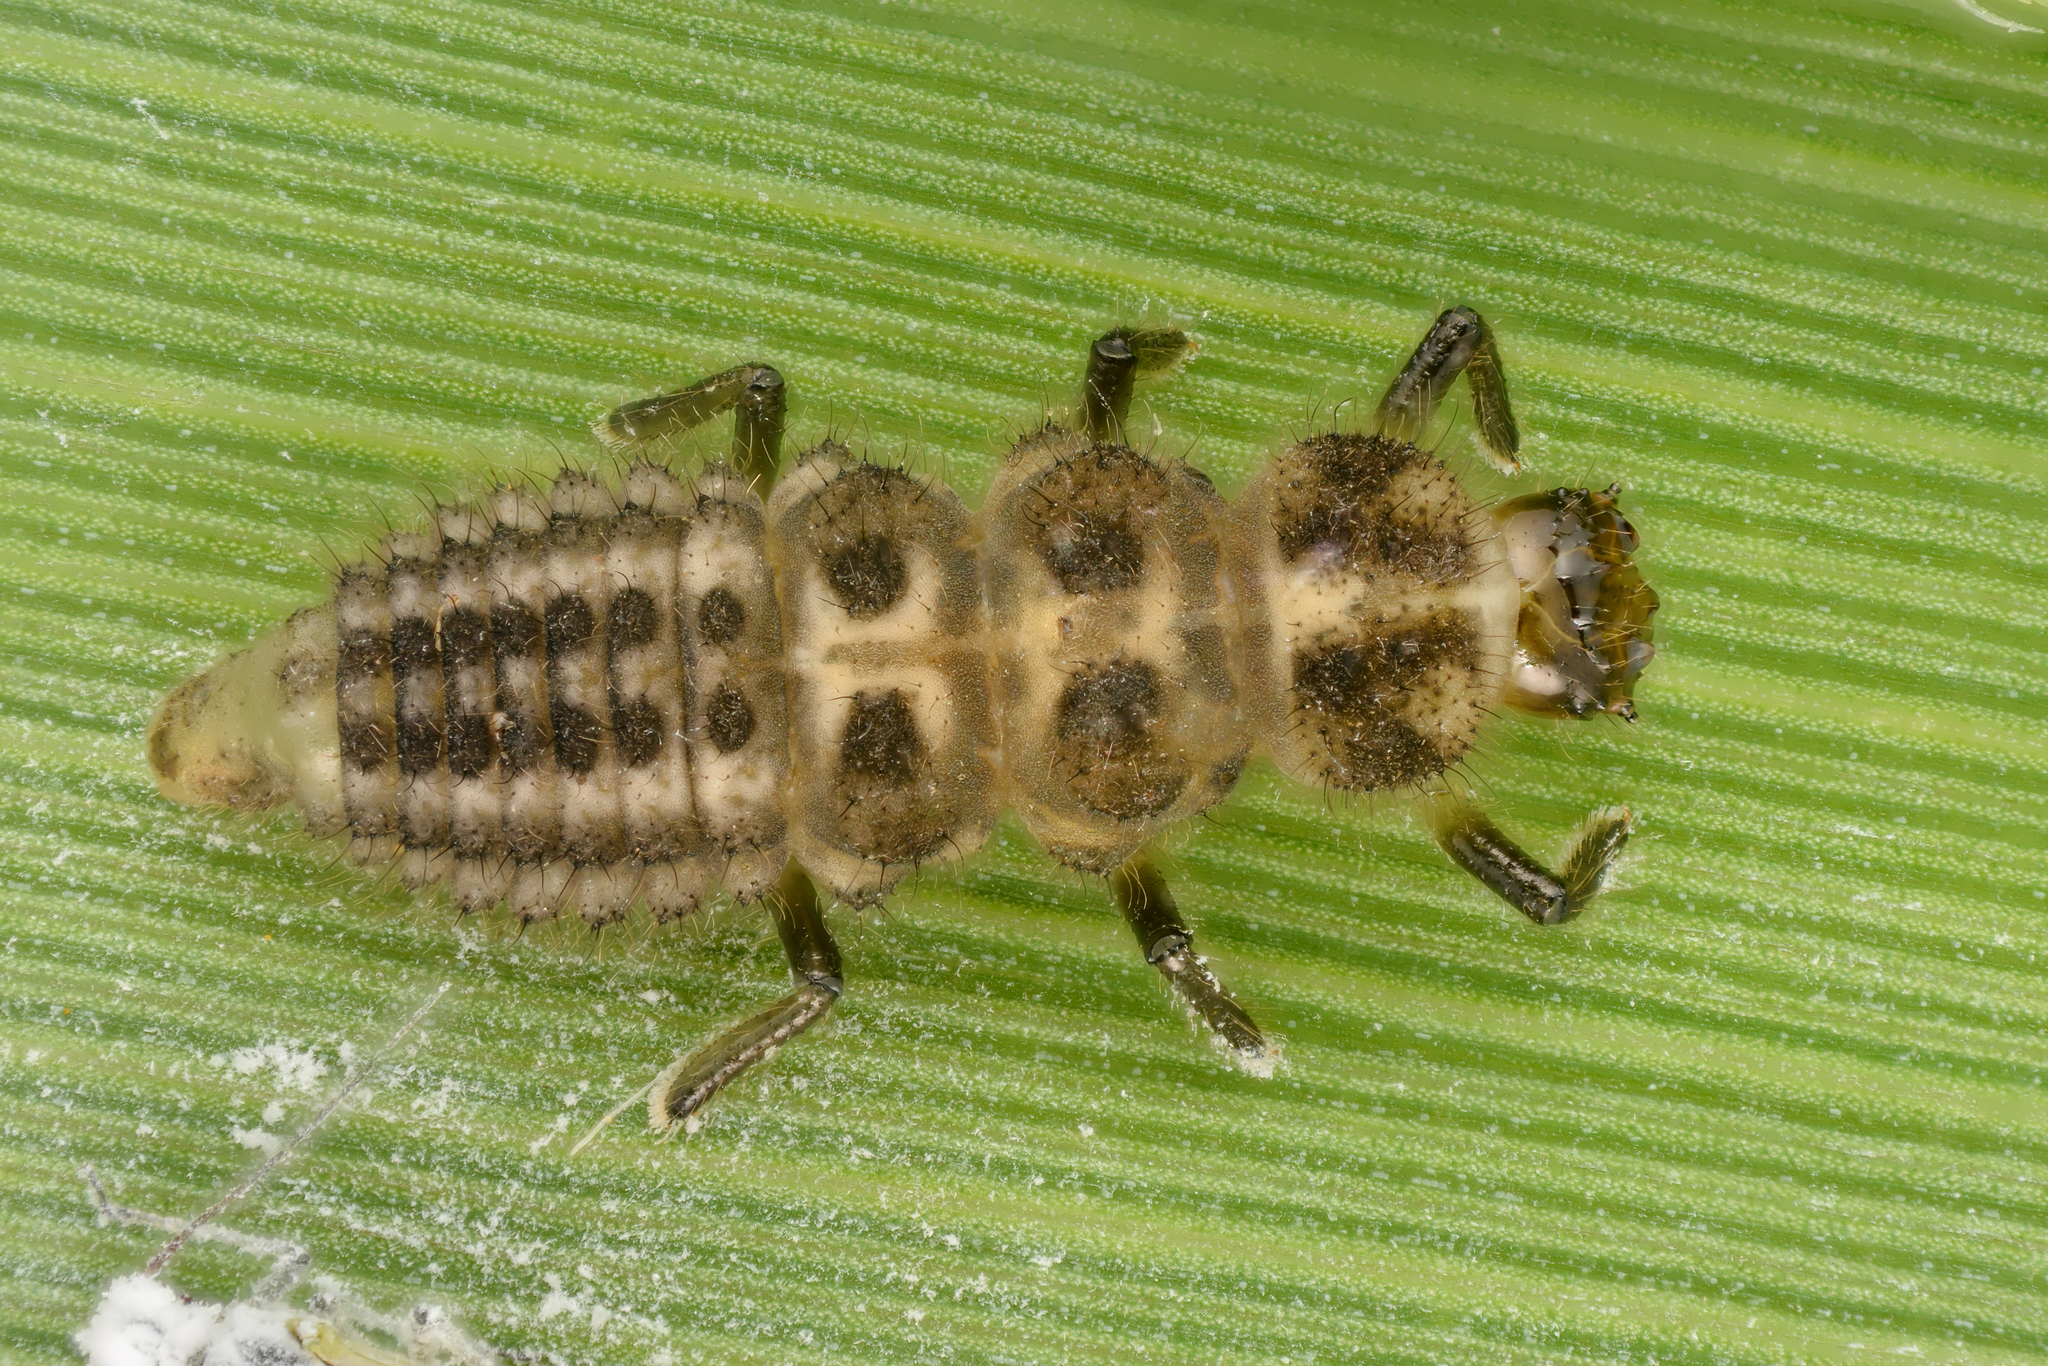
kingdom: Animalia
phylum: Arthropoda
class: Insecta
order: Coleoptera
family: Coccinellidae
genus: Anisosticta
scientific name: Anisosticta novemdecimpunctata
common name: Water ladybird
